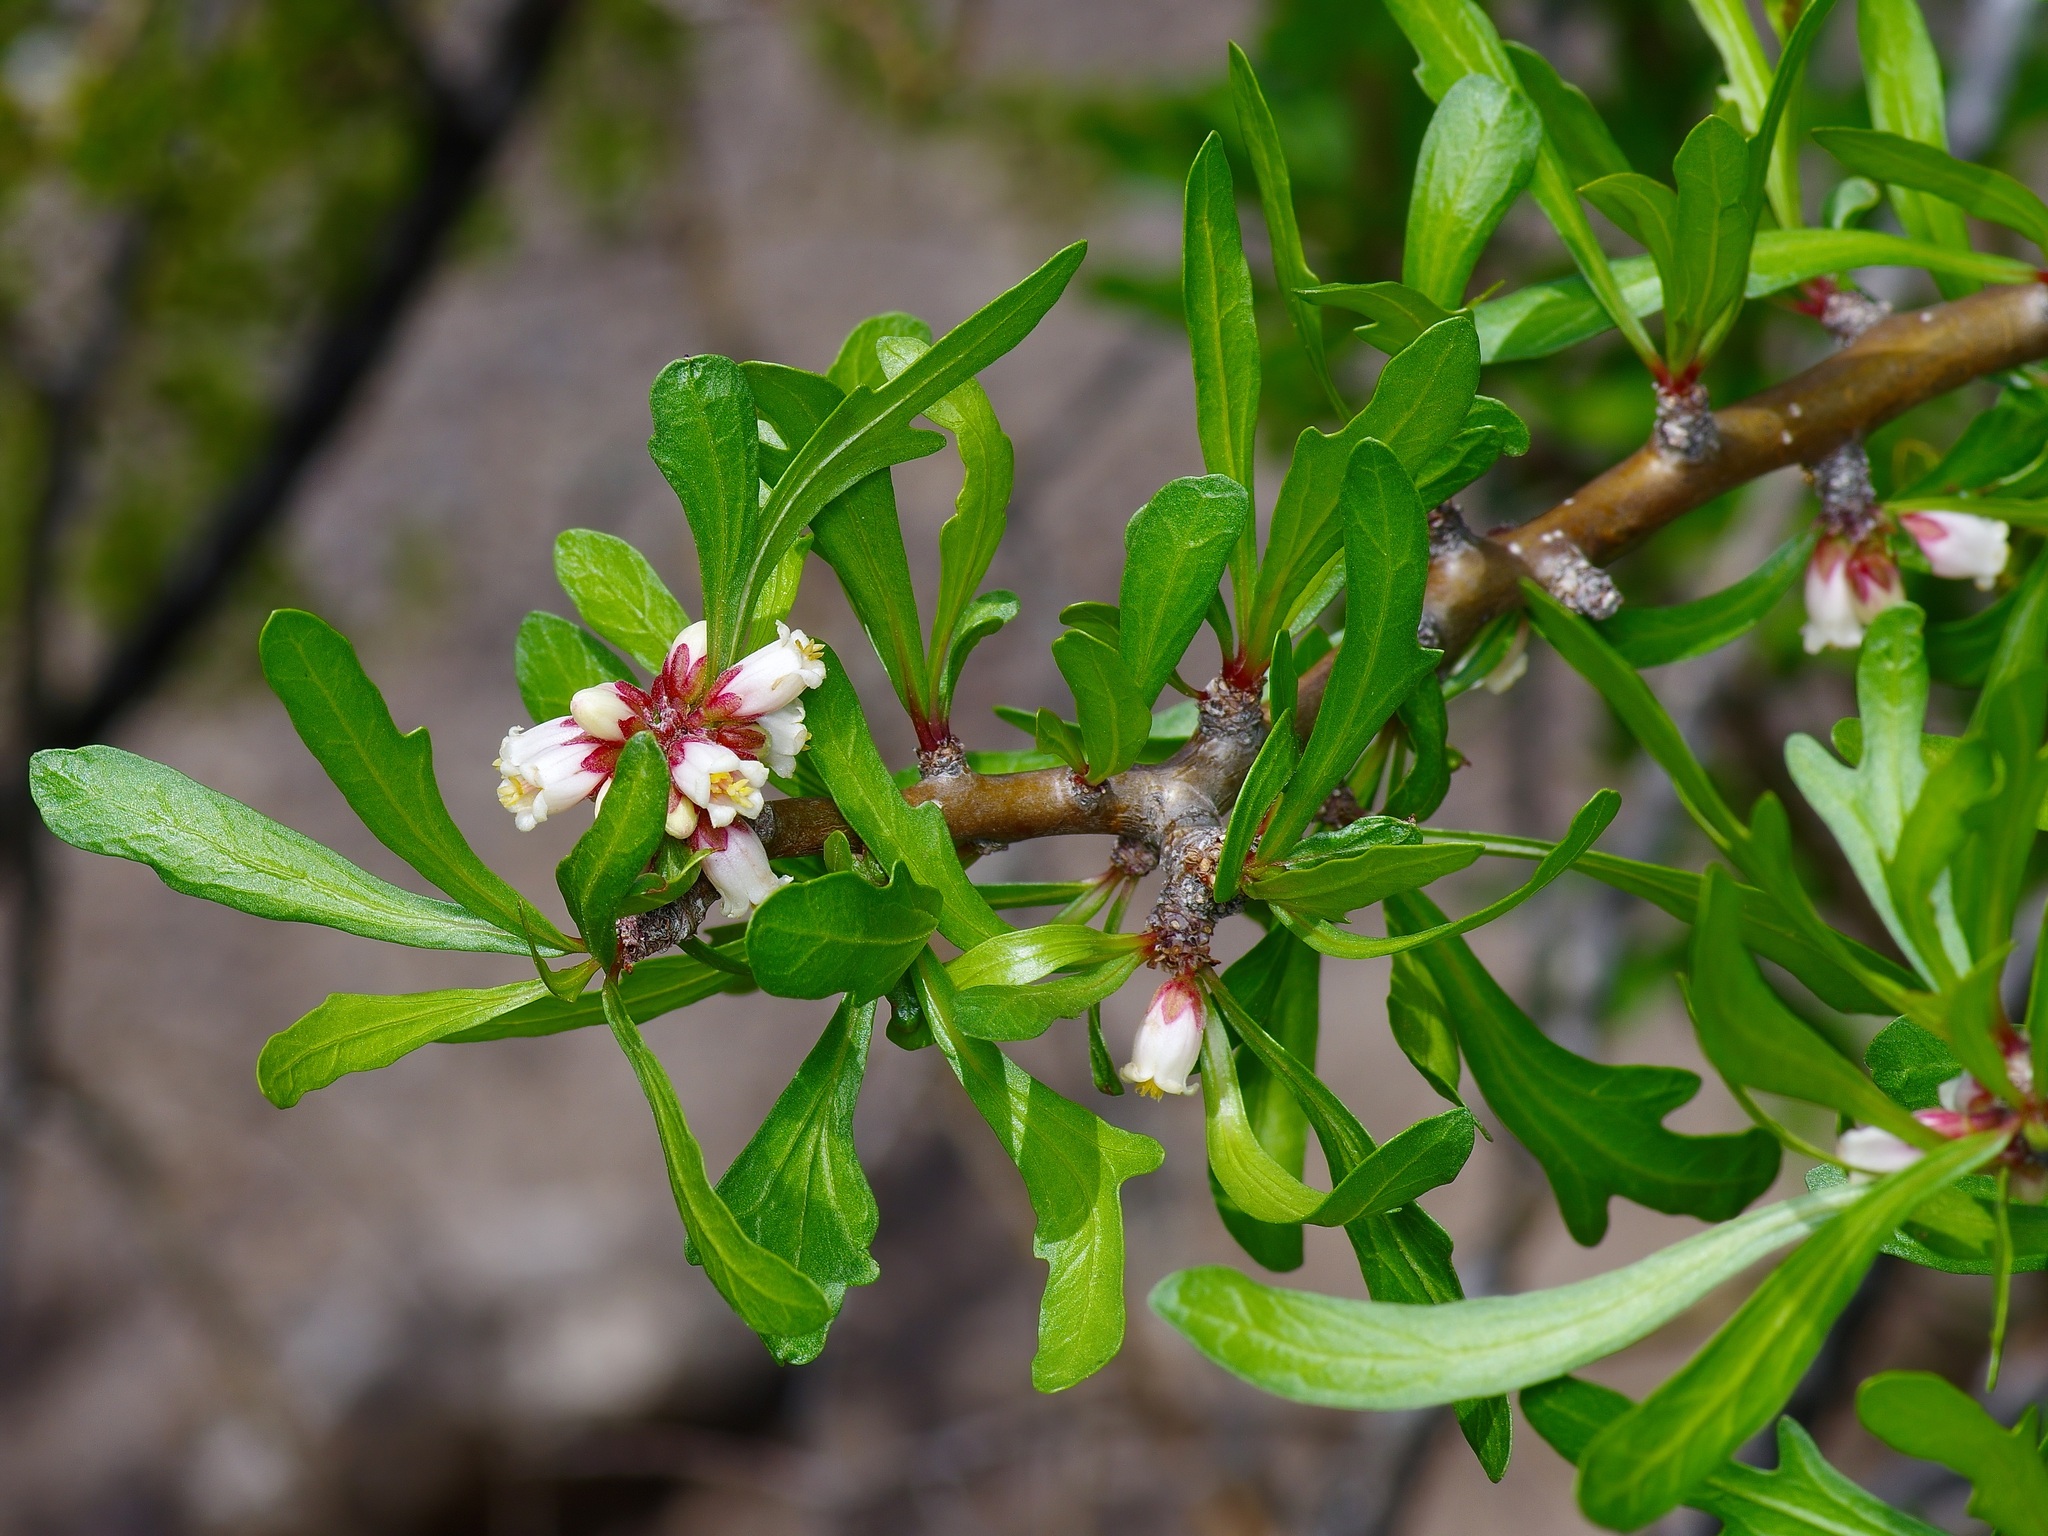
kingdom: Plantae
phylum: Tracheophyta
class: Magnoliopsida
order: Malpighiales
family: Euphorbiaceae
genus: Jatropha
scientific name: Jatropha dioica
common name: Leatherstem
